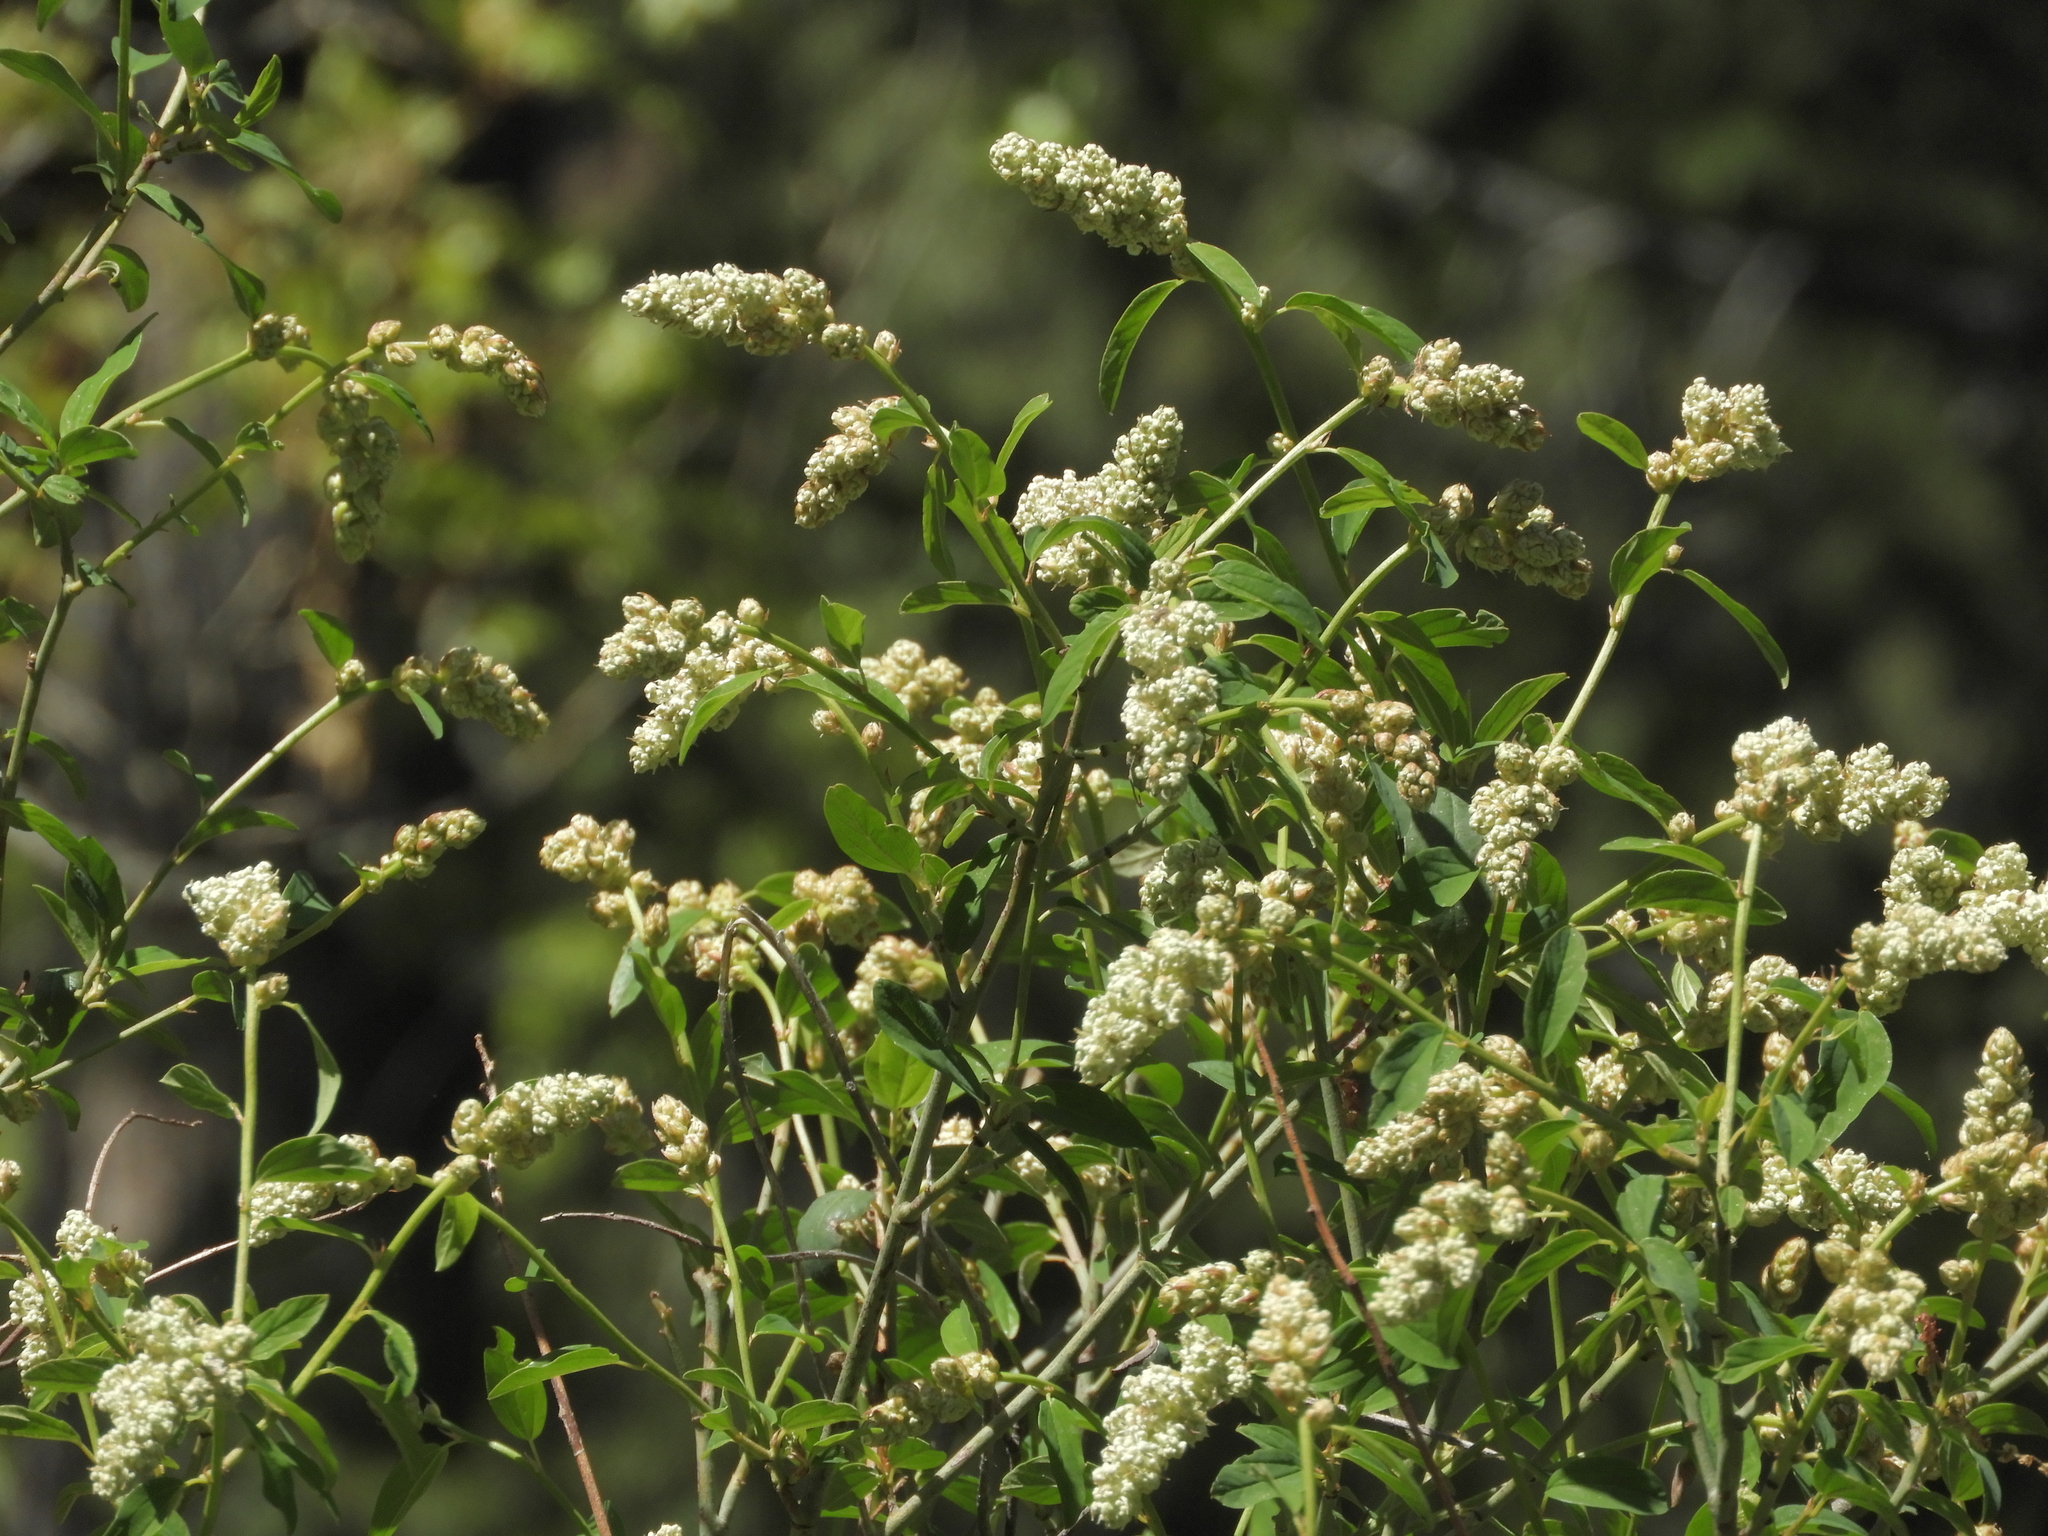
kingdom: Plantae
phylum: Tracheophyta
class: Magnoliopsida
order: Rosales
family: Rhamnaceae
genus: Ceanothus
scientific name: Ceanothus integerrimus
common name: Deerbrush ceanothus
